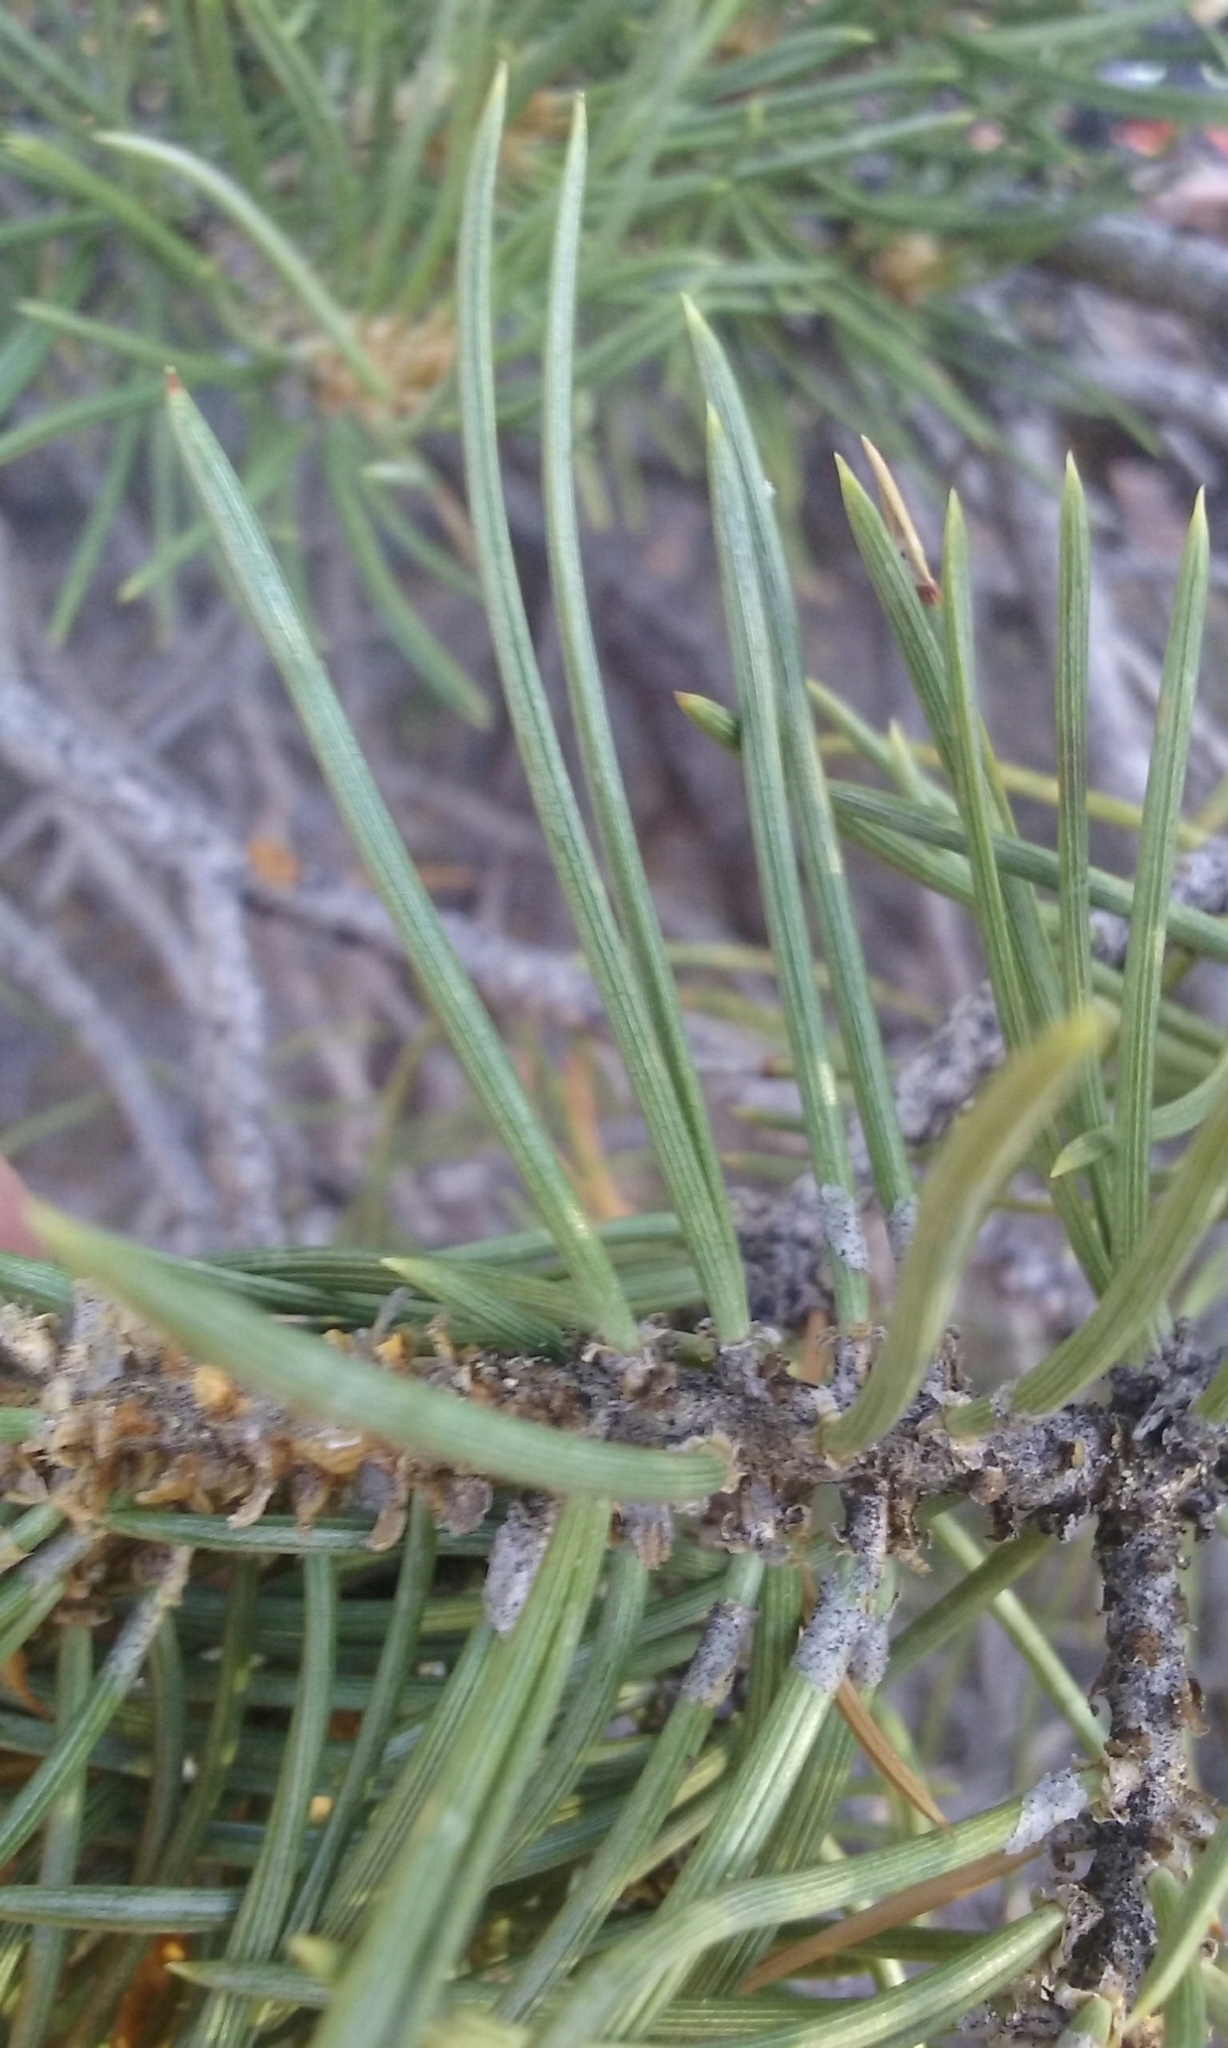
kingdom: Plantae
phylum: Tracheophyta
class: Pinopsida
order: Pinales
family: Pinaceae
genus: Pinus
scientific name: Pinus edulis
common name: Colorado pinyon
